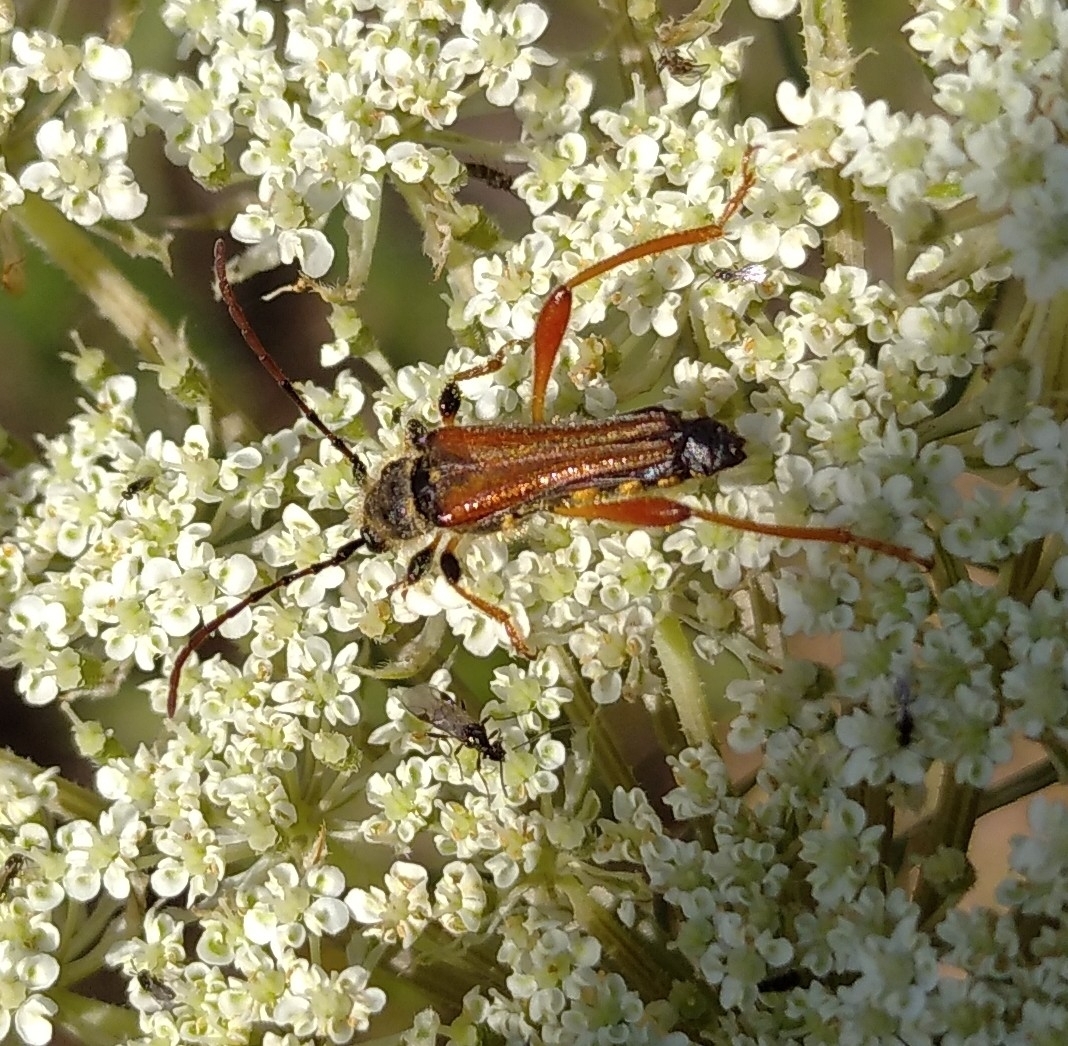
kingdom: Animalia
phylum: Arthropoda
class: Insecta
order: Coleoptera
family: Cerambycidae
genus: Stenopterus
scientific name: Stenopterus rufus
